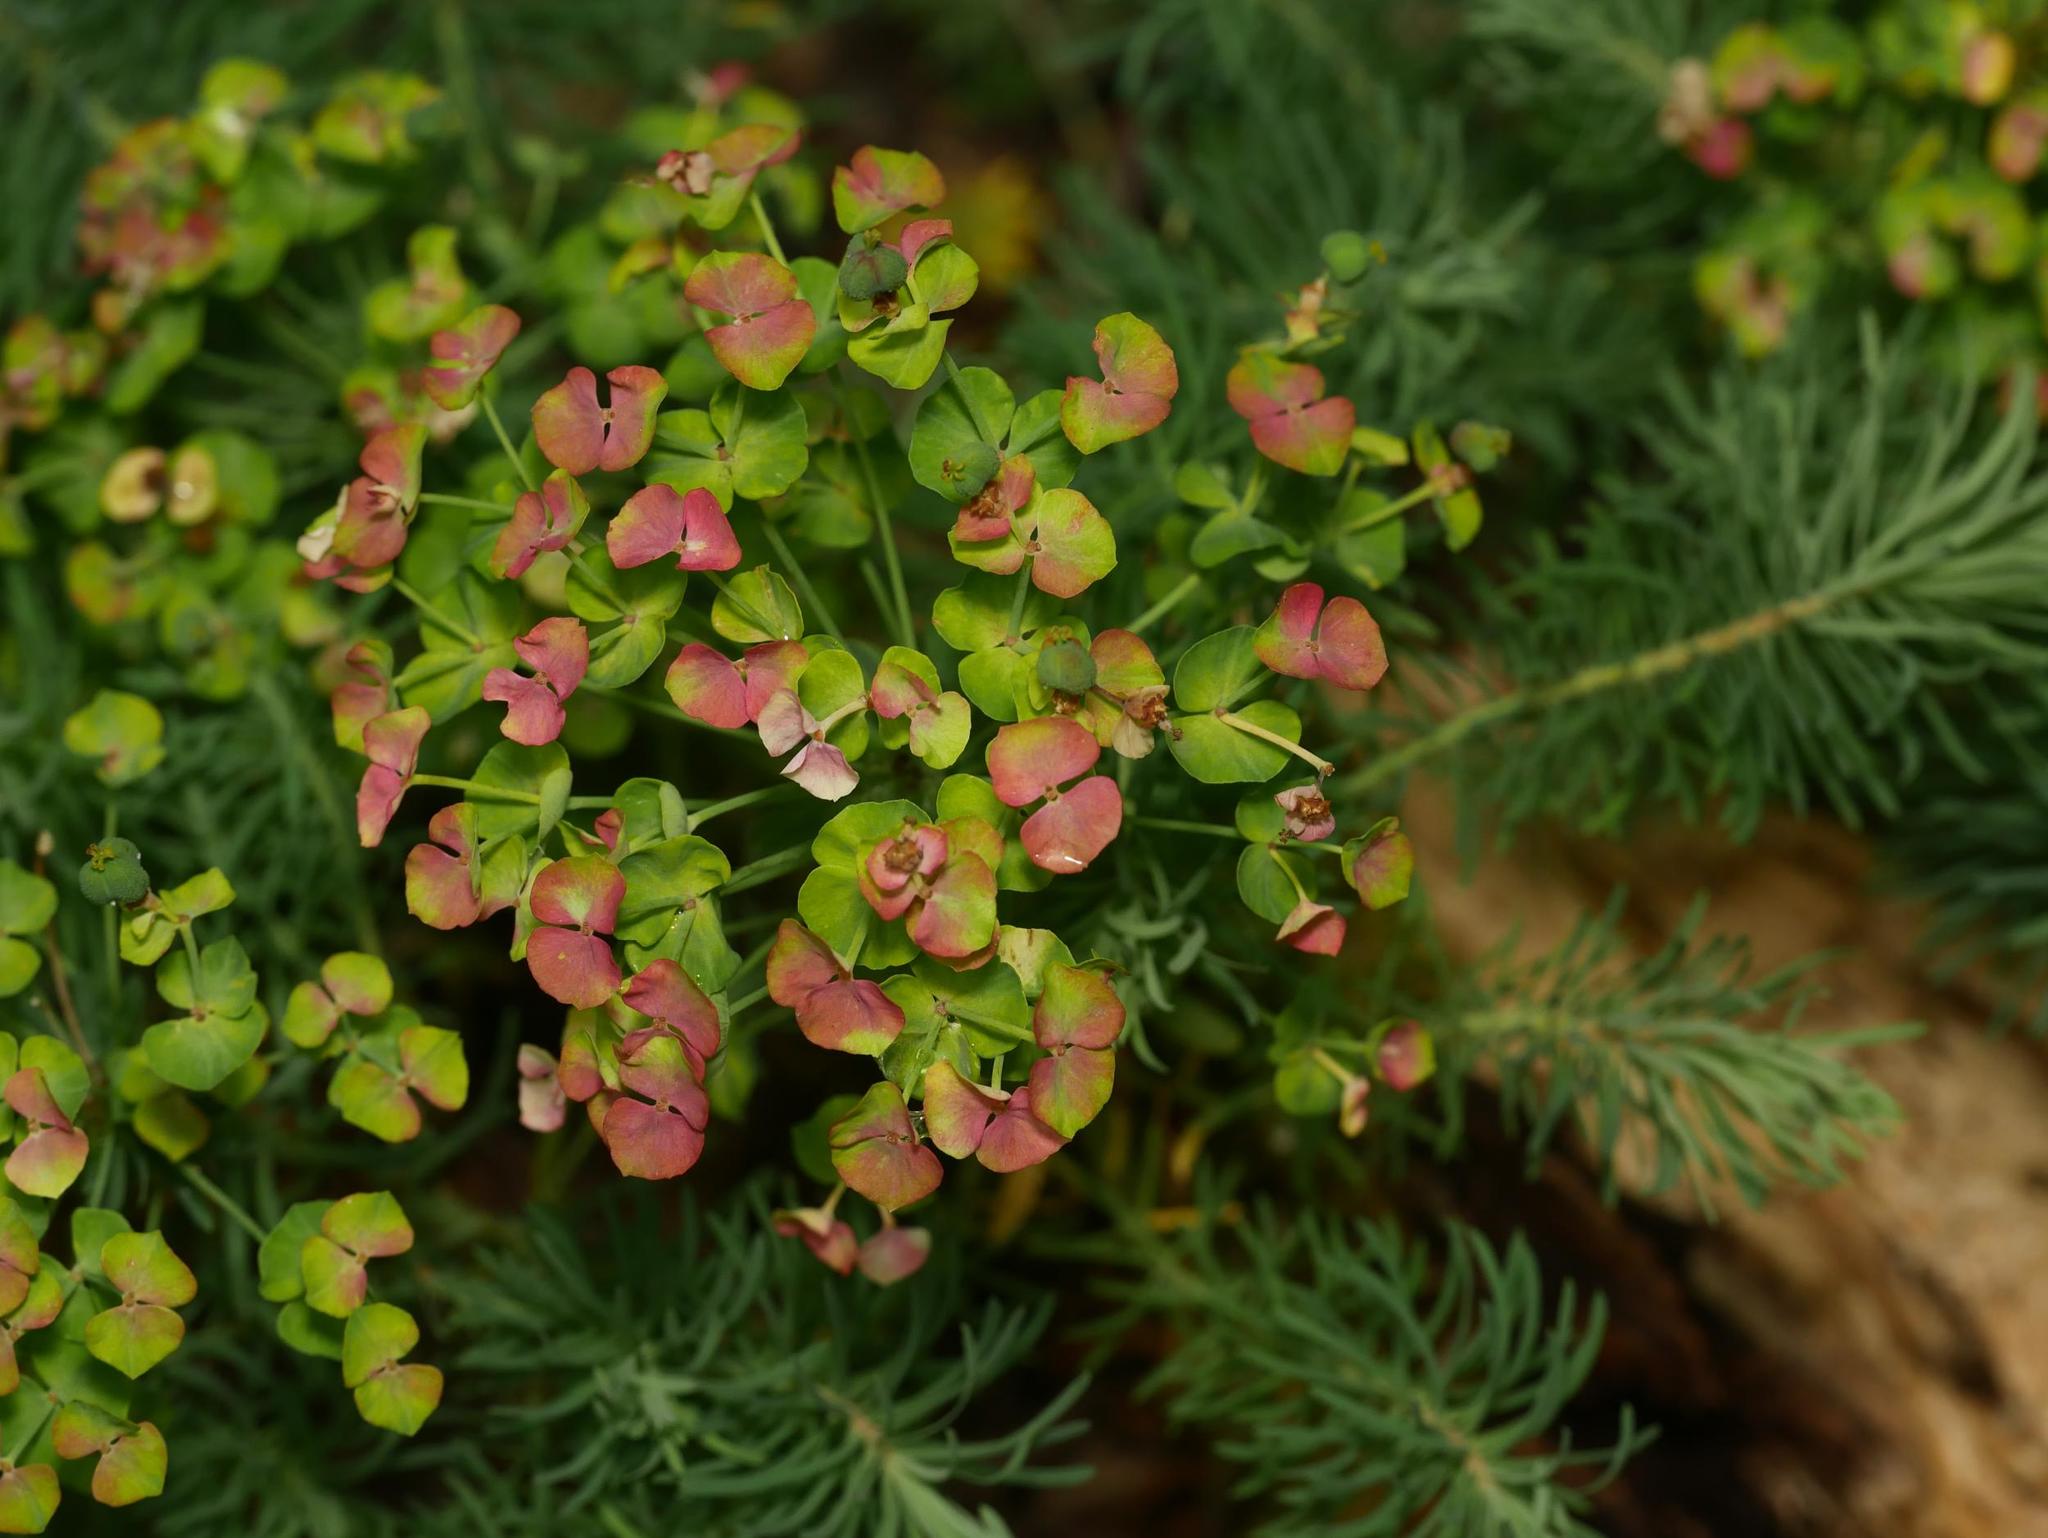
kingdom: Plantae
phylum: Tracheophyta
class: Magnoliopsida
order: Malpighiales
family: Euphorbiaceae
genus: Euphorbia
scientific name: Euphorbia cyparissias
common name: Cypress spurge
